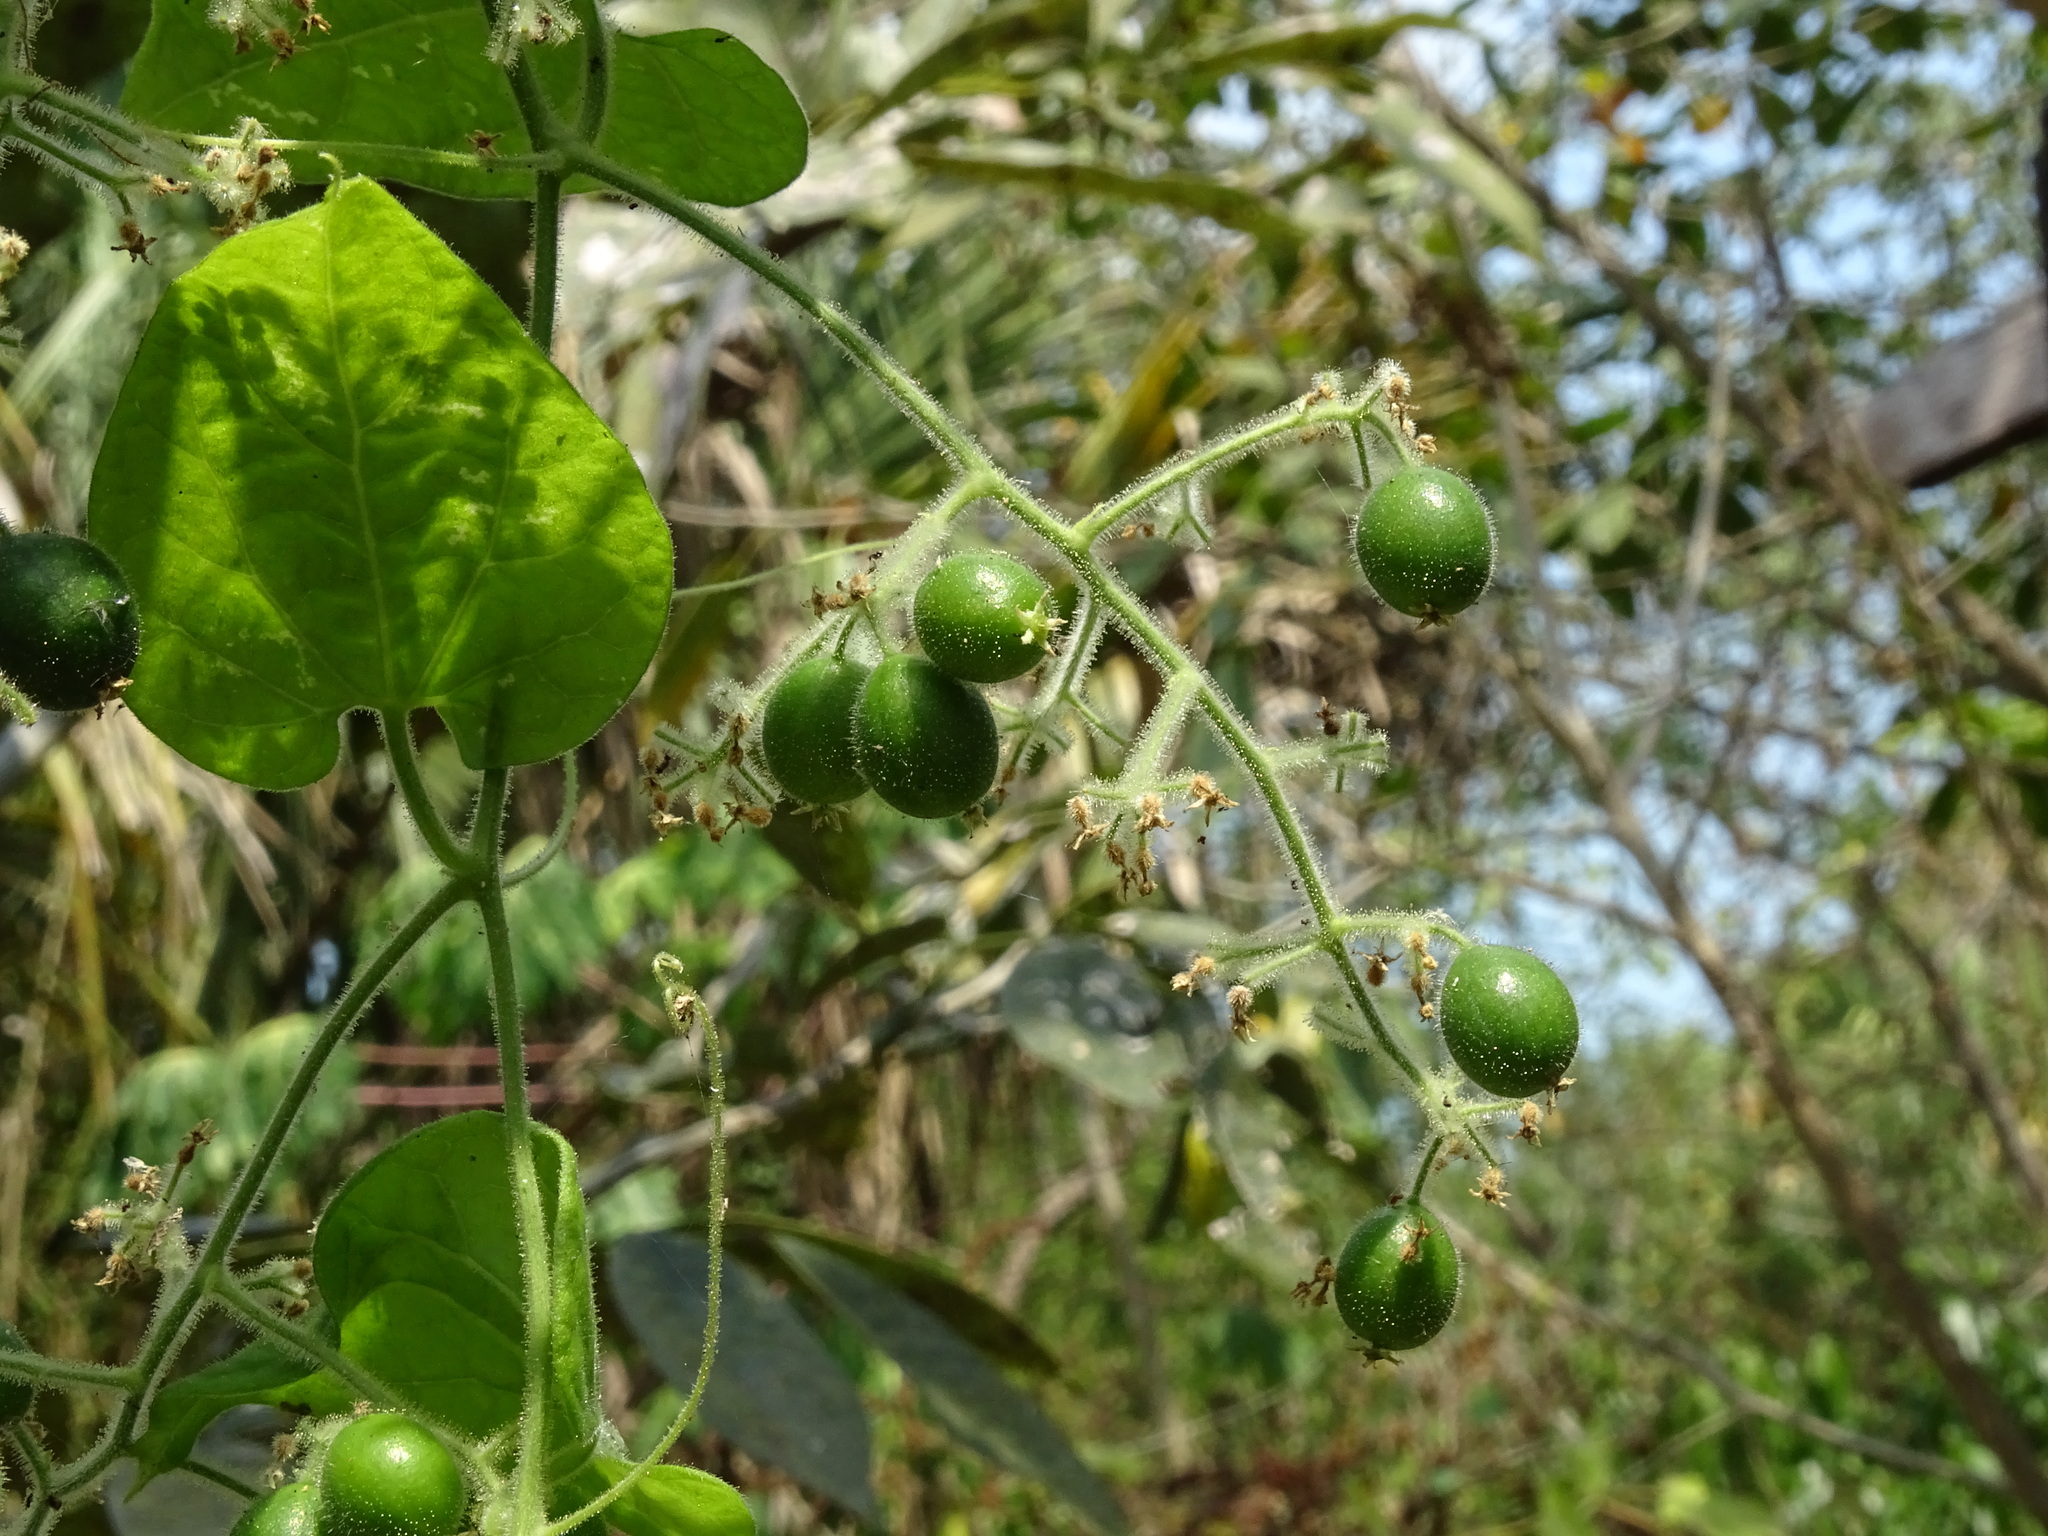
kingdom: Plantae
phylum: Tracheophyta
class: Magnoliopsida
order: Cucurbitales
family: Cucurbitaceae
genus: Sicydium
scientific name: Sicydium tamnifolium
